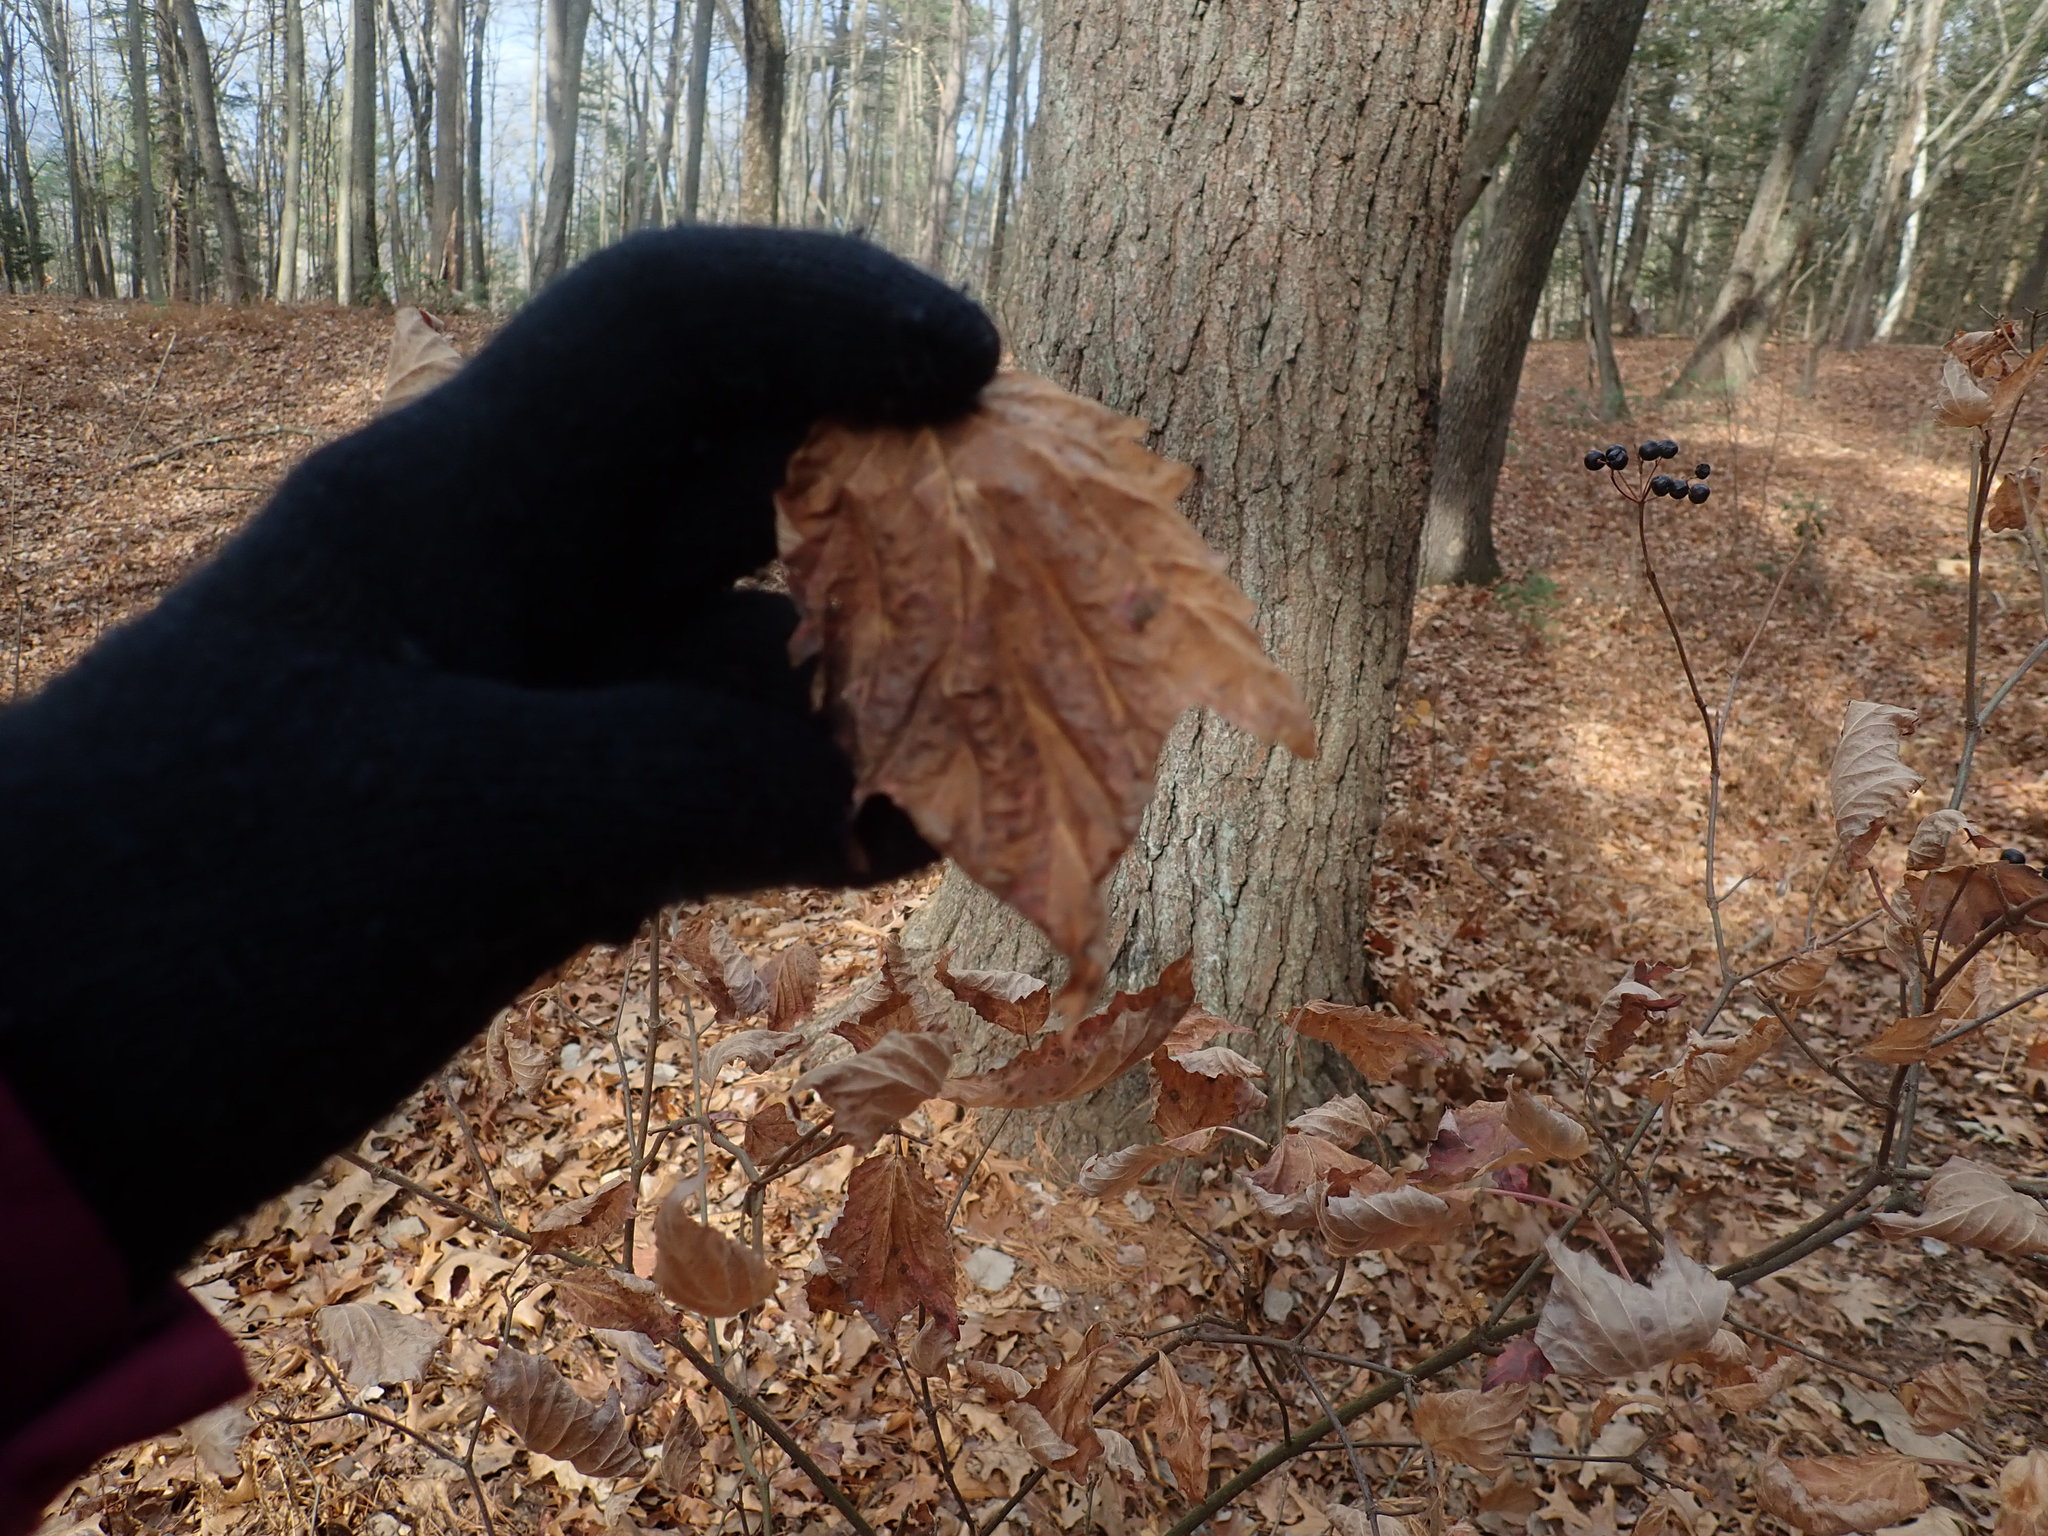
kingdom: Plantae
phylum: Tracheophyta
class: Magnoliopsida
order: Dipsacales
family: Viburnaceae
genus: Viburnum
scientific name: Viburnum acerifolium
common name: Dockmackie
